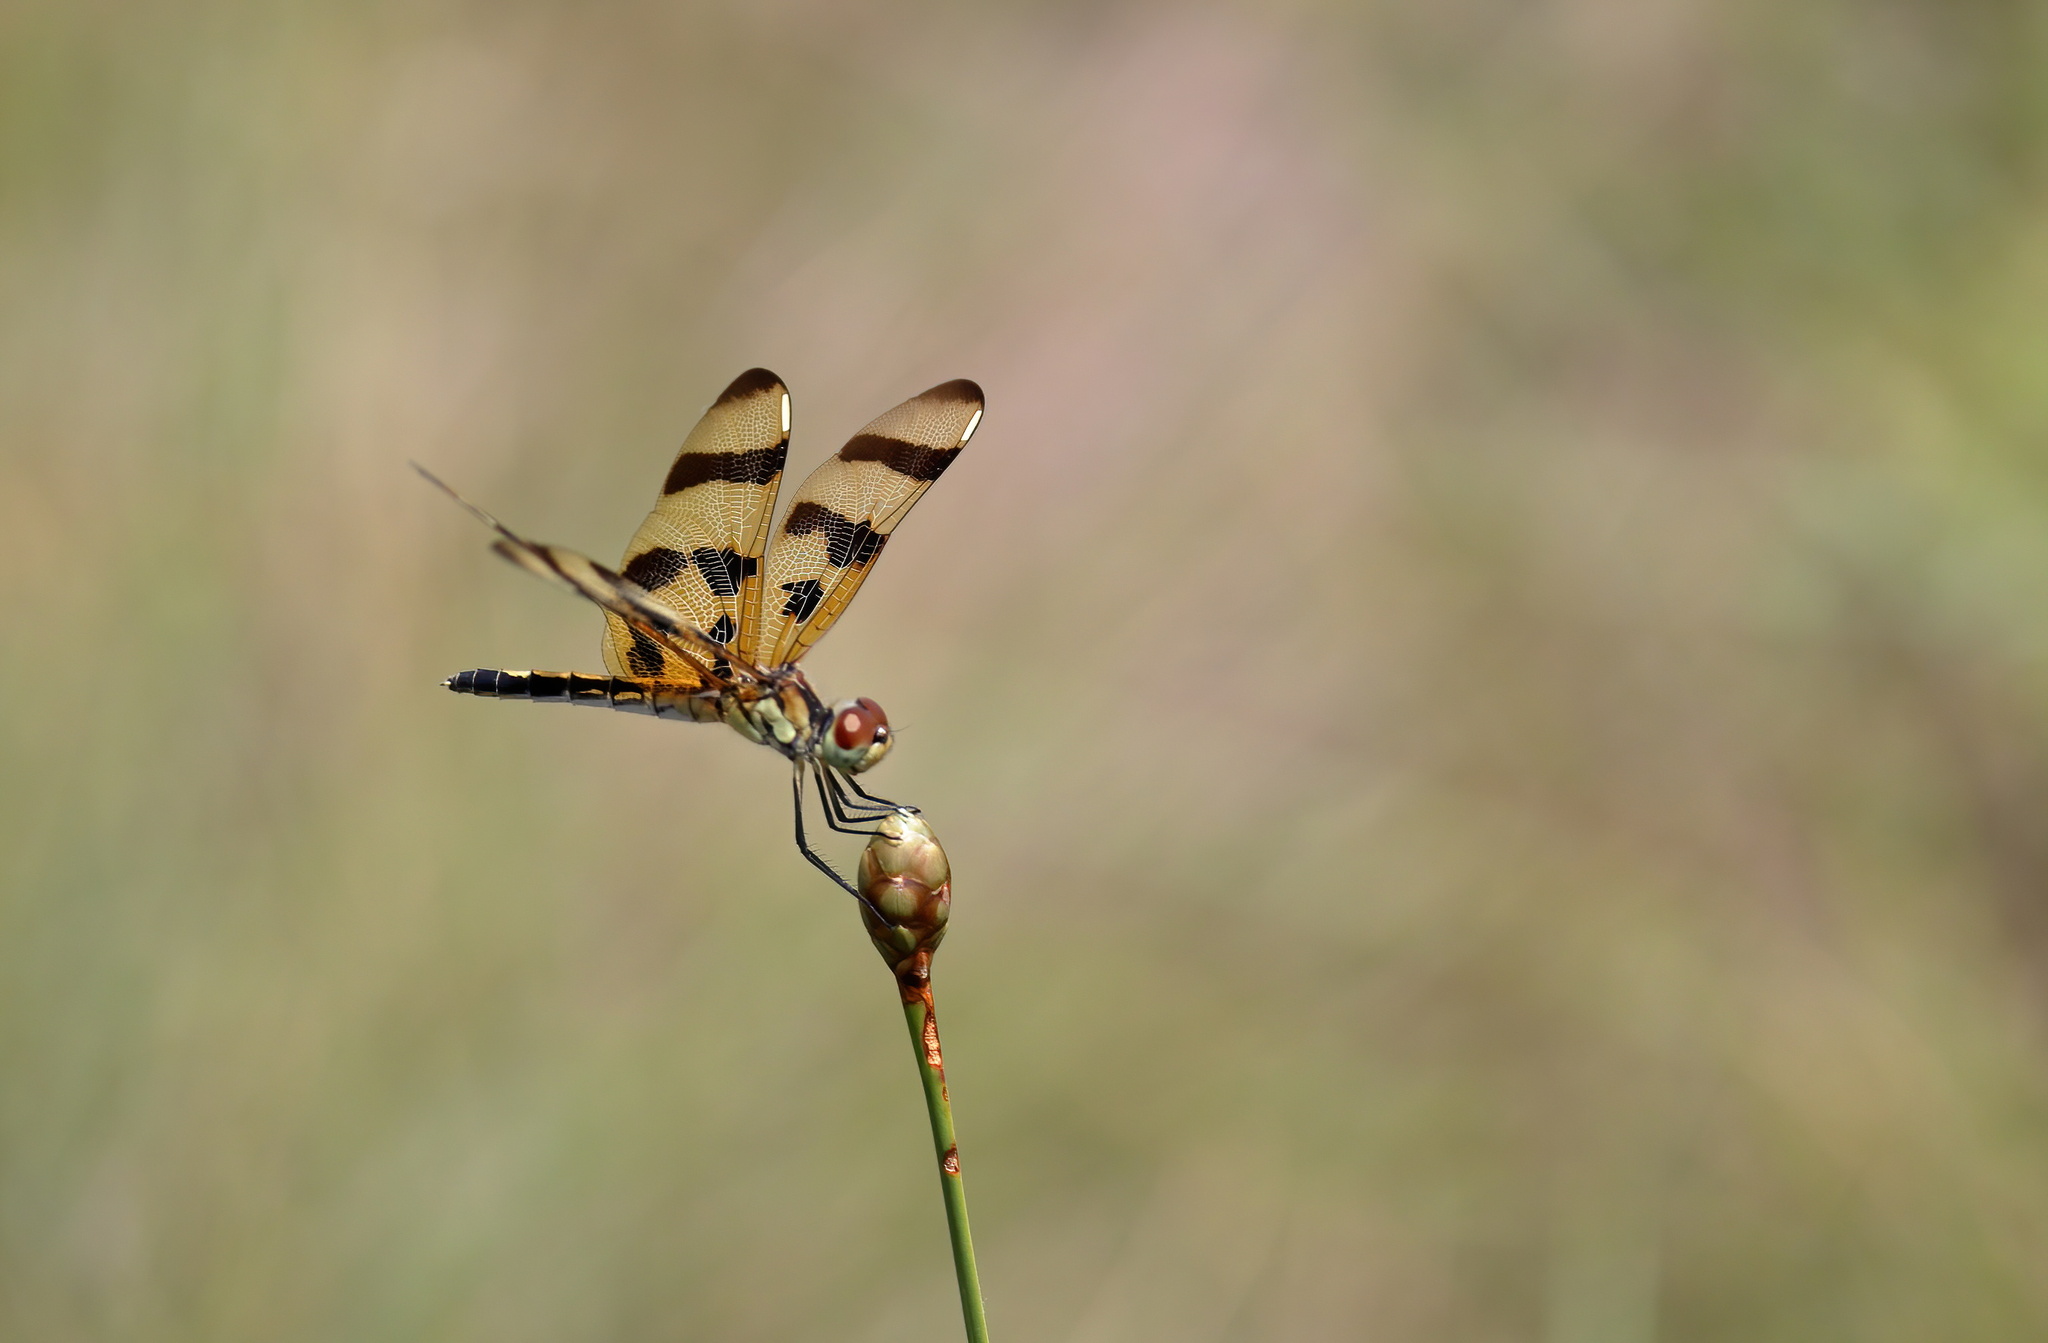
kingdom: Animalia
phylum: Arthropoda
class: Insecta
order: Odonata
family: Libellulidae
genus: Celithemis
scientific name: Celithemis eponina
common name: Halloween pennant
